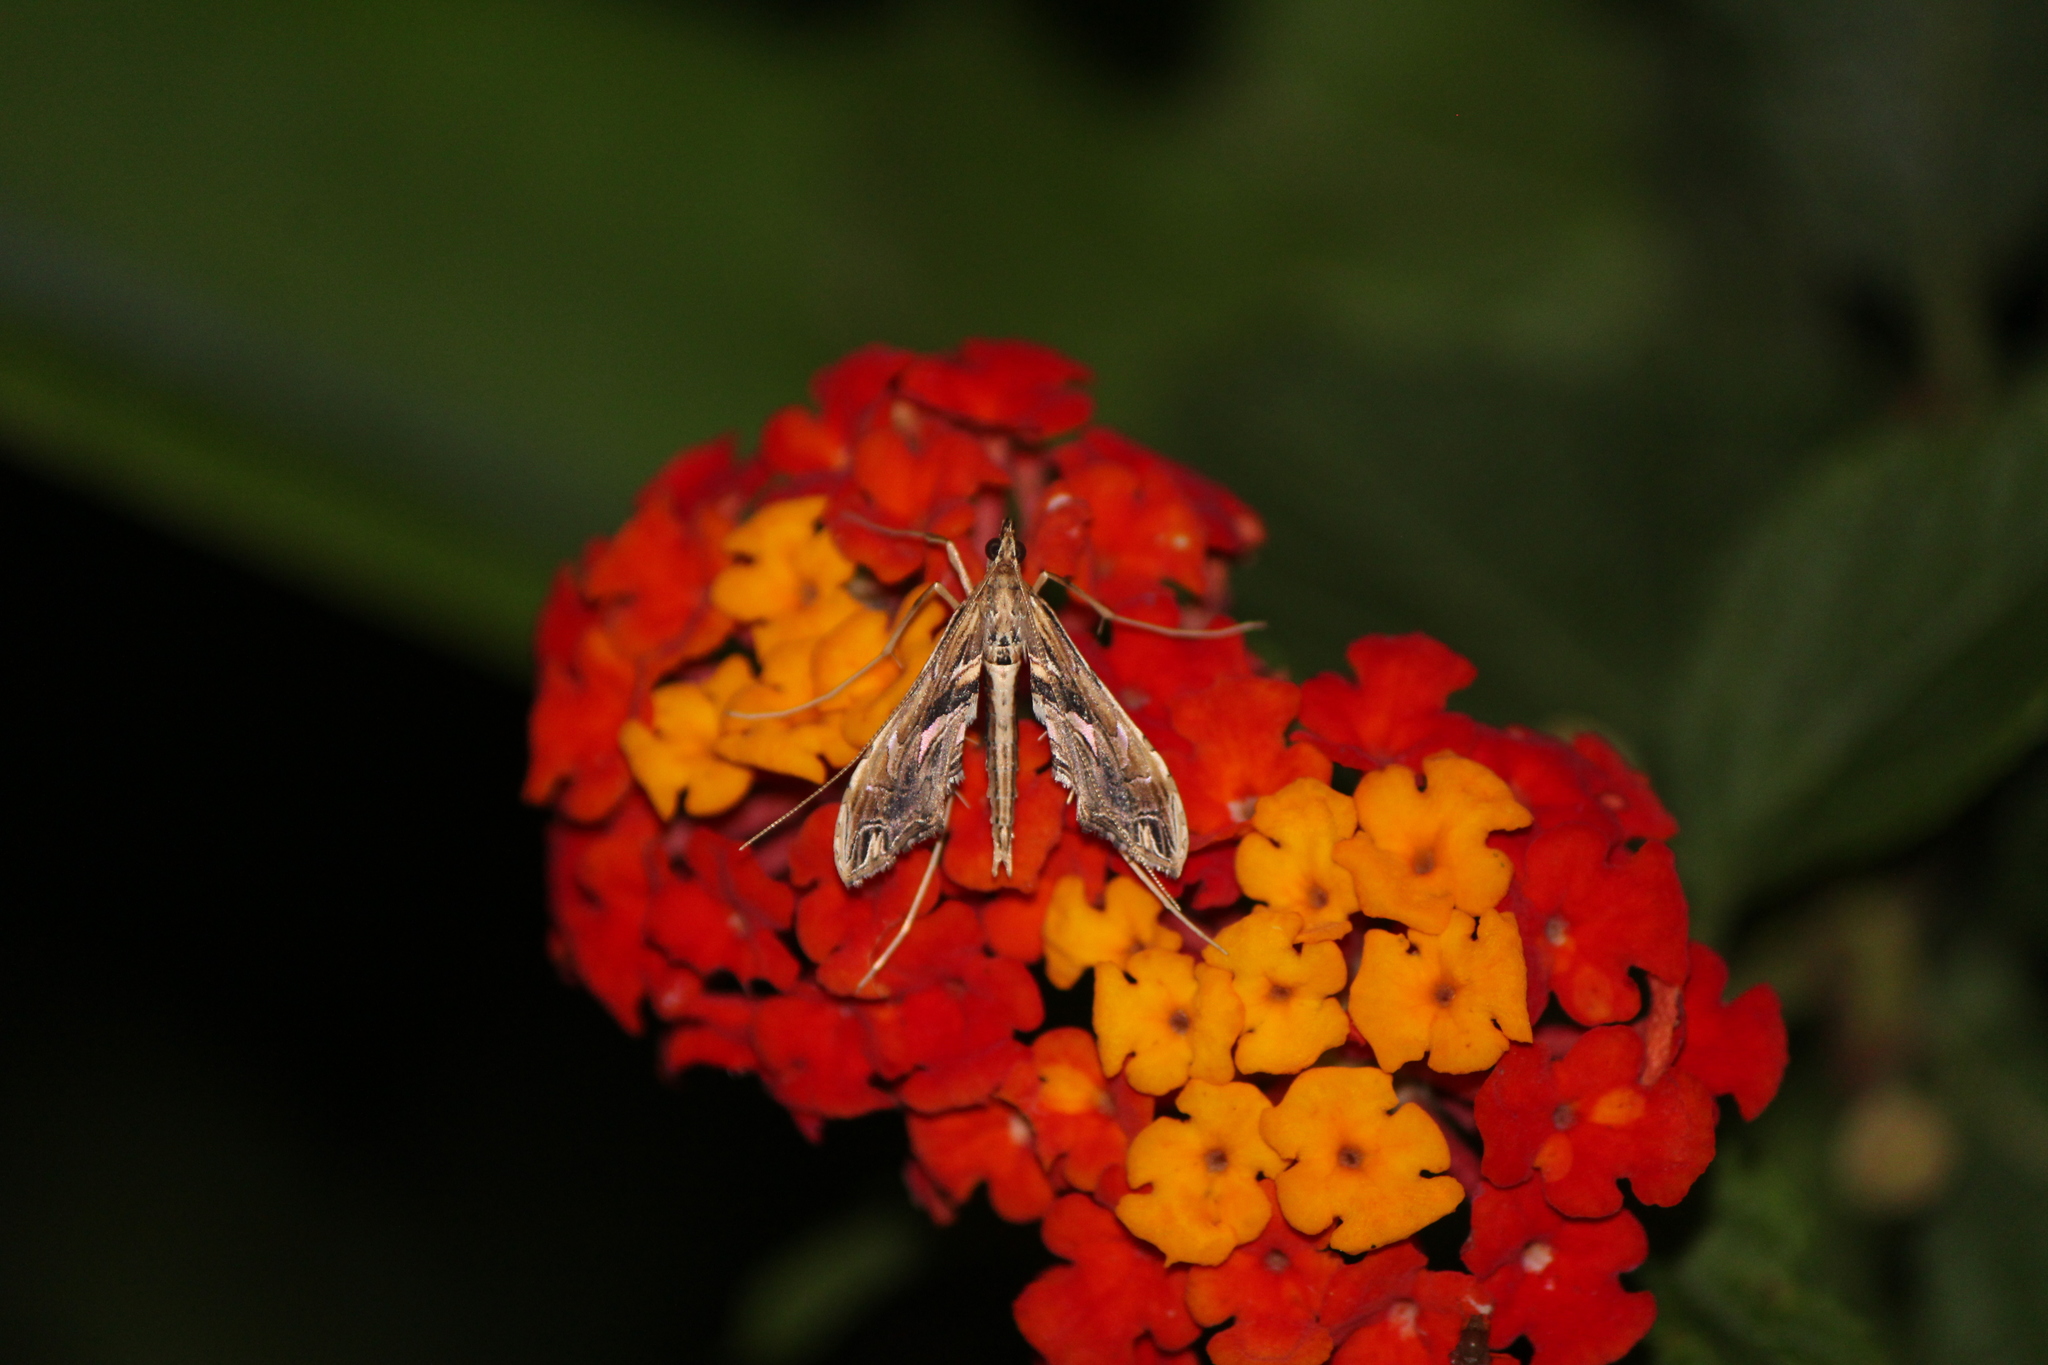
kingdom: Animalia
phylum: Arthropoda
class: Insecta
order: Lepidoptera
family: Crambidae
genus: Lineodes
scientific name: Lineodes elcodes
